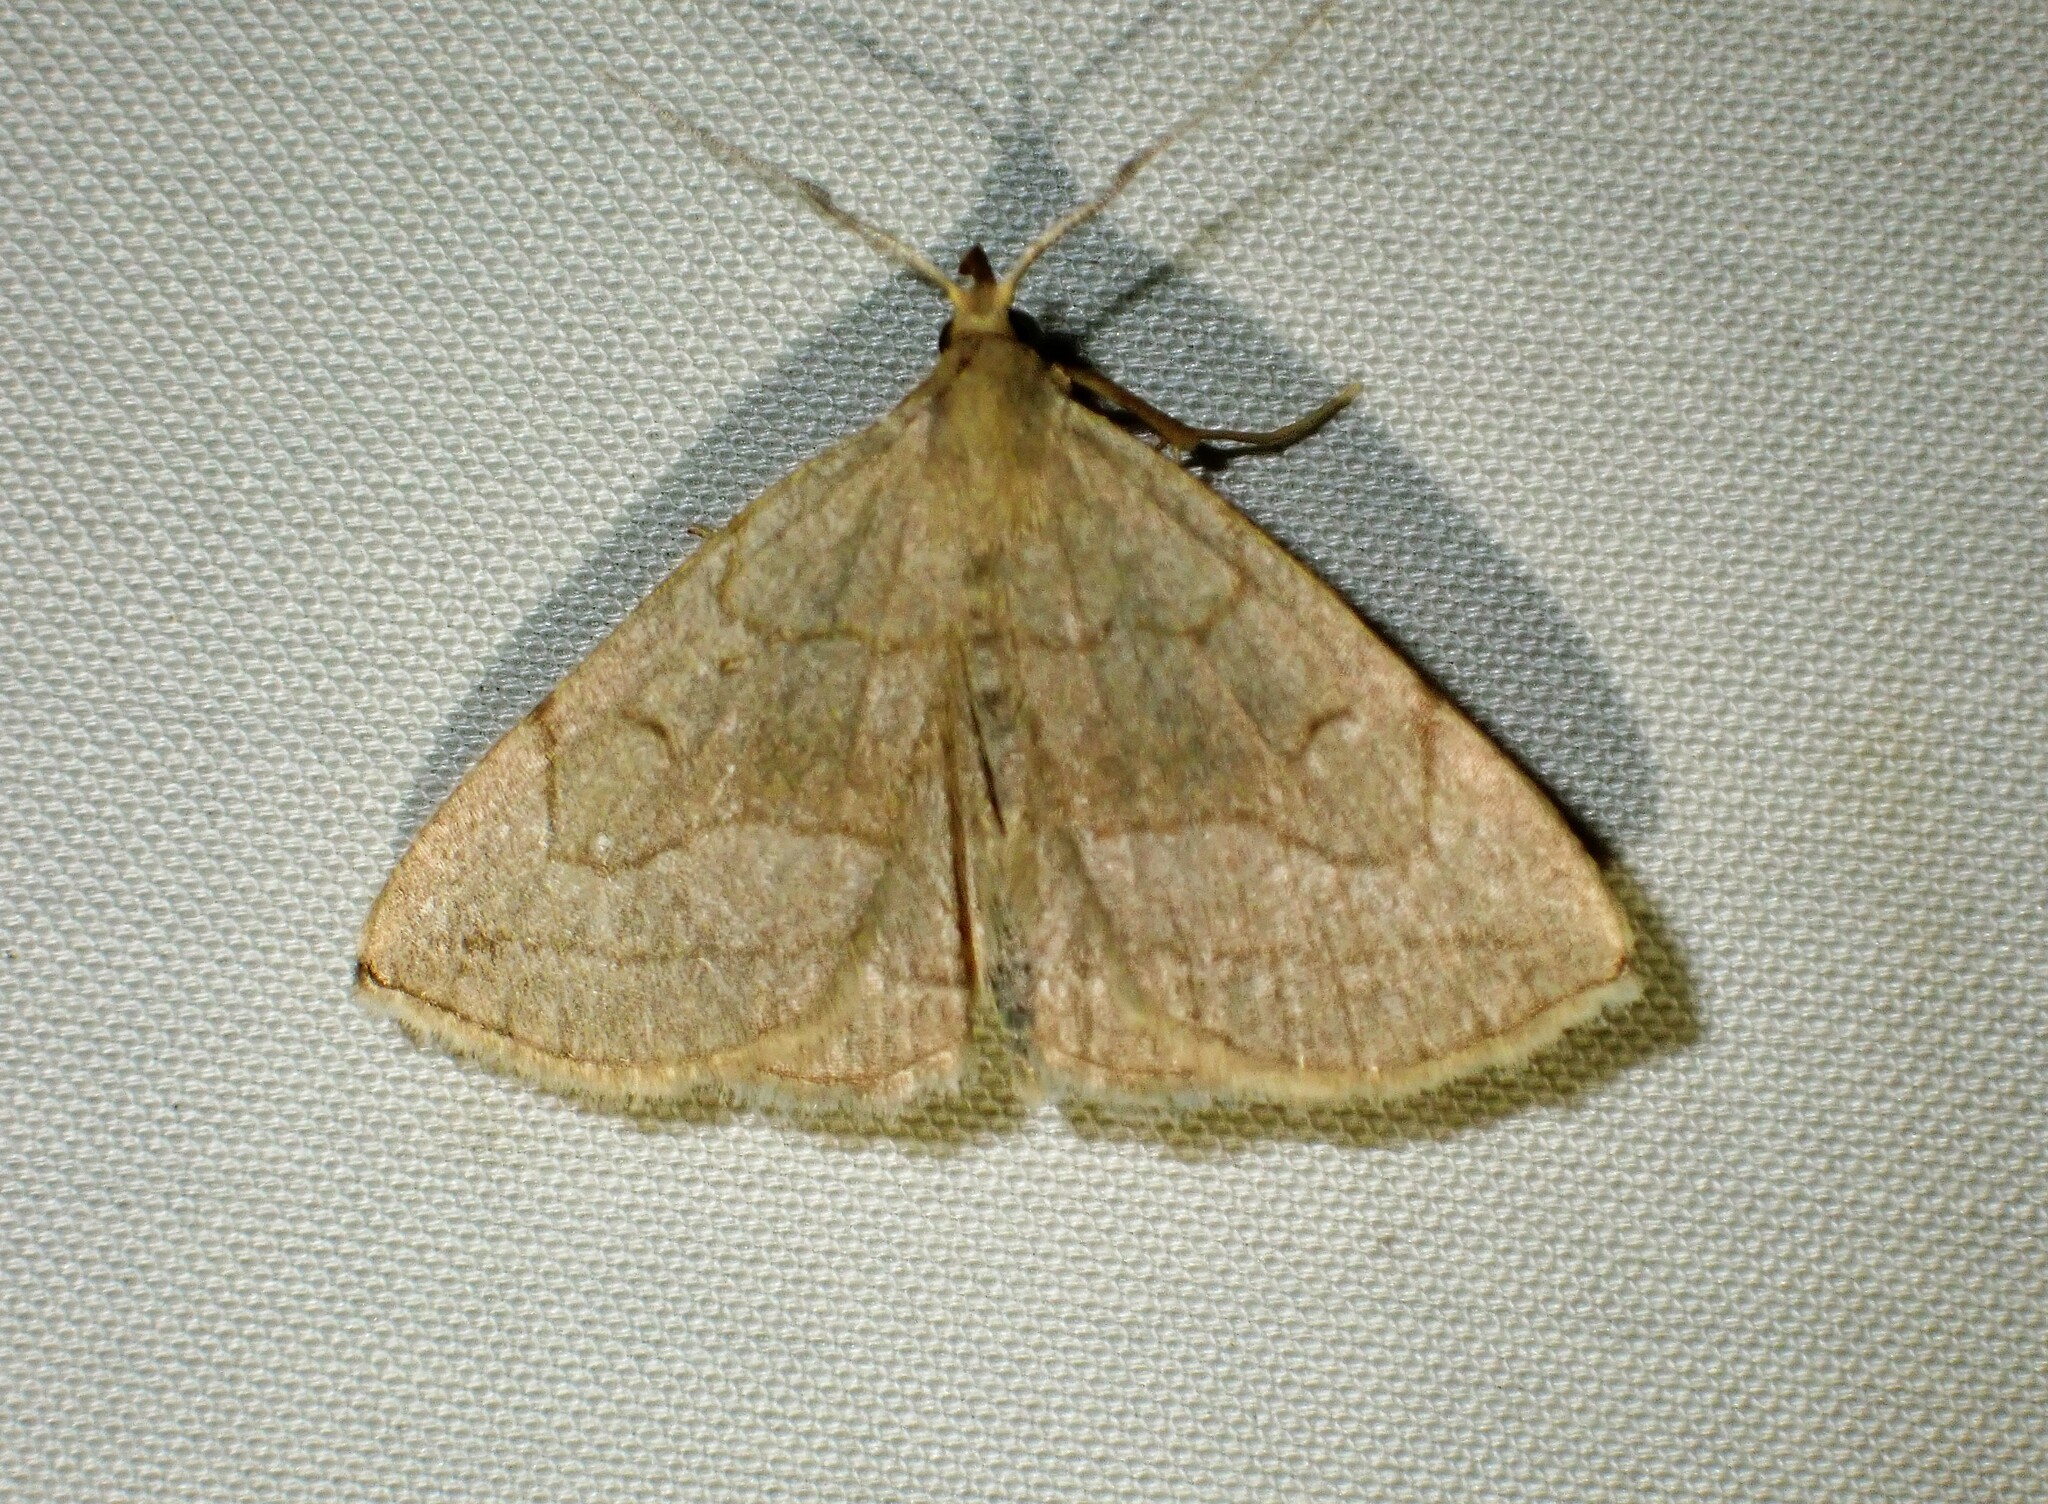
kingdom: Animalia
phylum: Arthropoda
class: Insecta
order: Lepidoptera
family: Erebidae
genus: Zanclognatha
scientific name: Zanclognatha pedipilalis
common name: Grayish fan-foot
